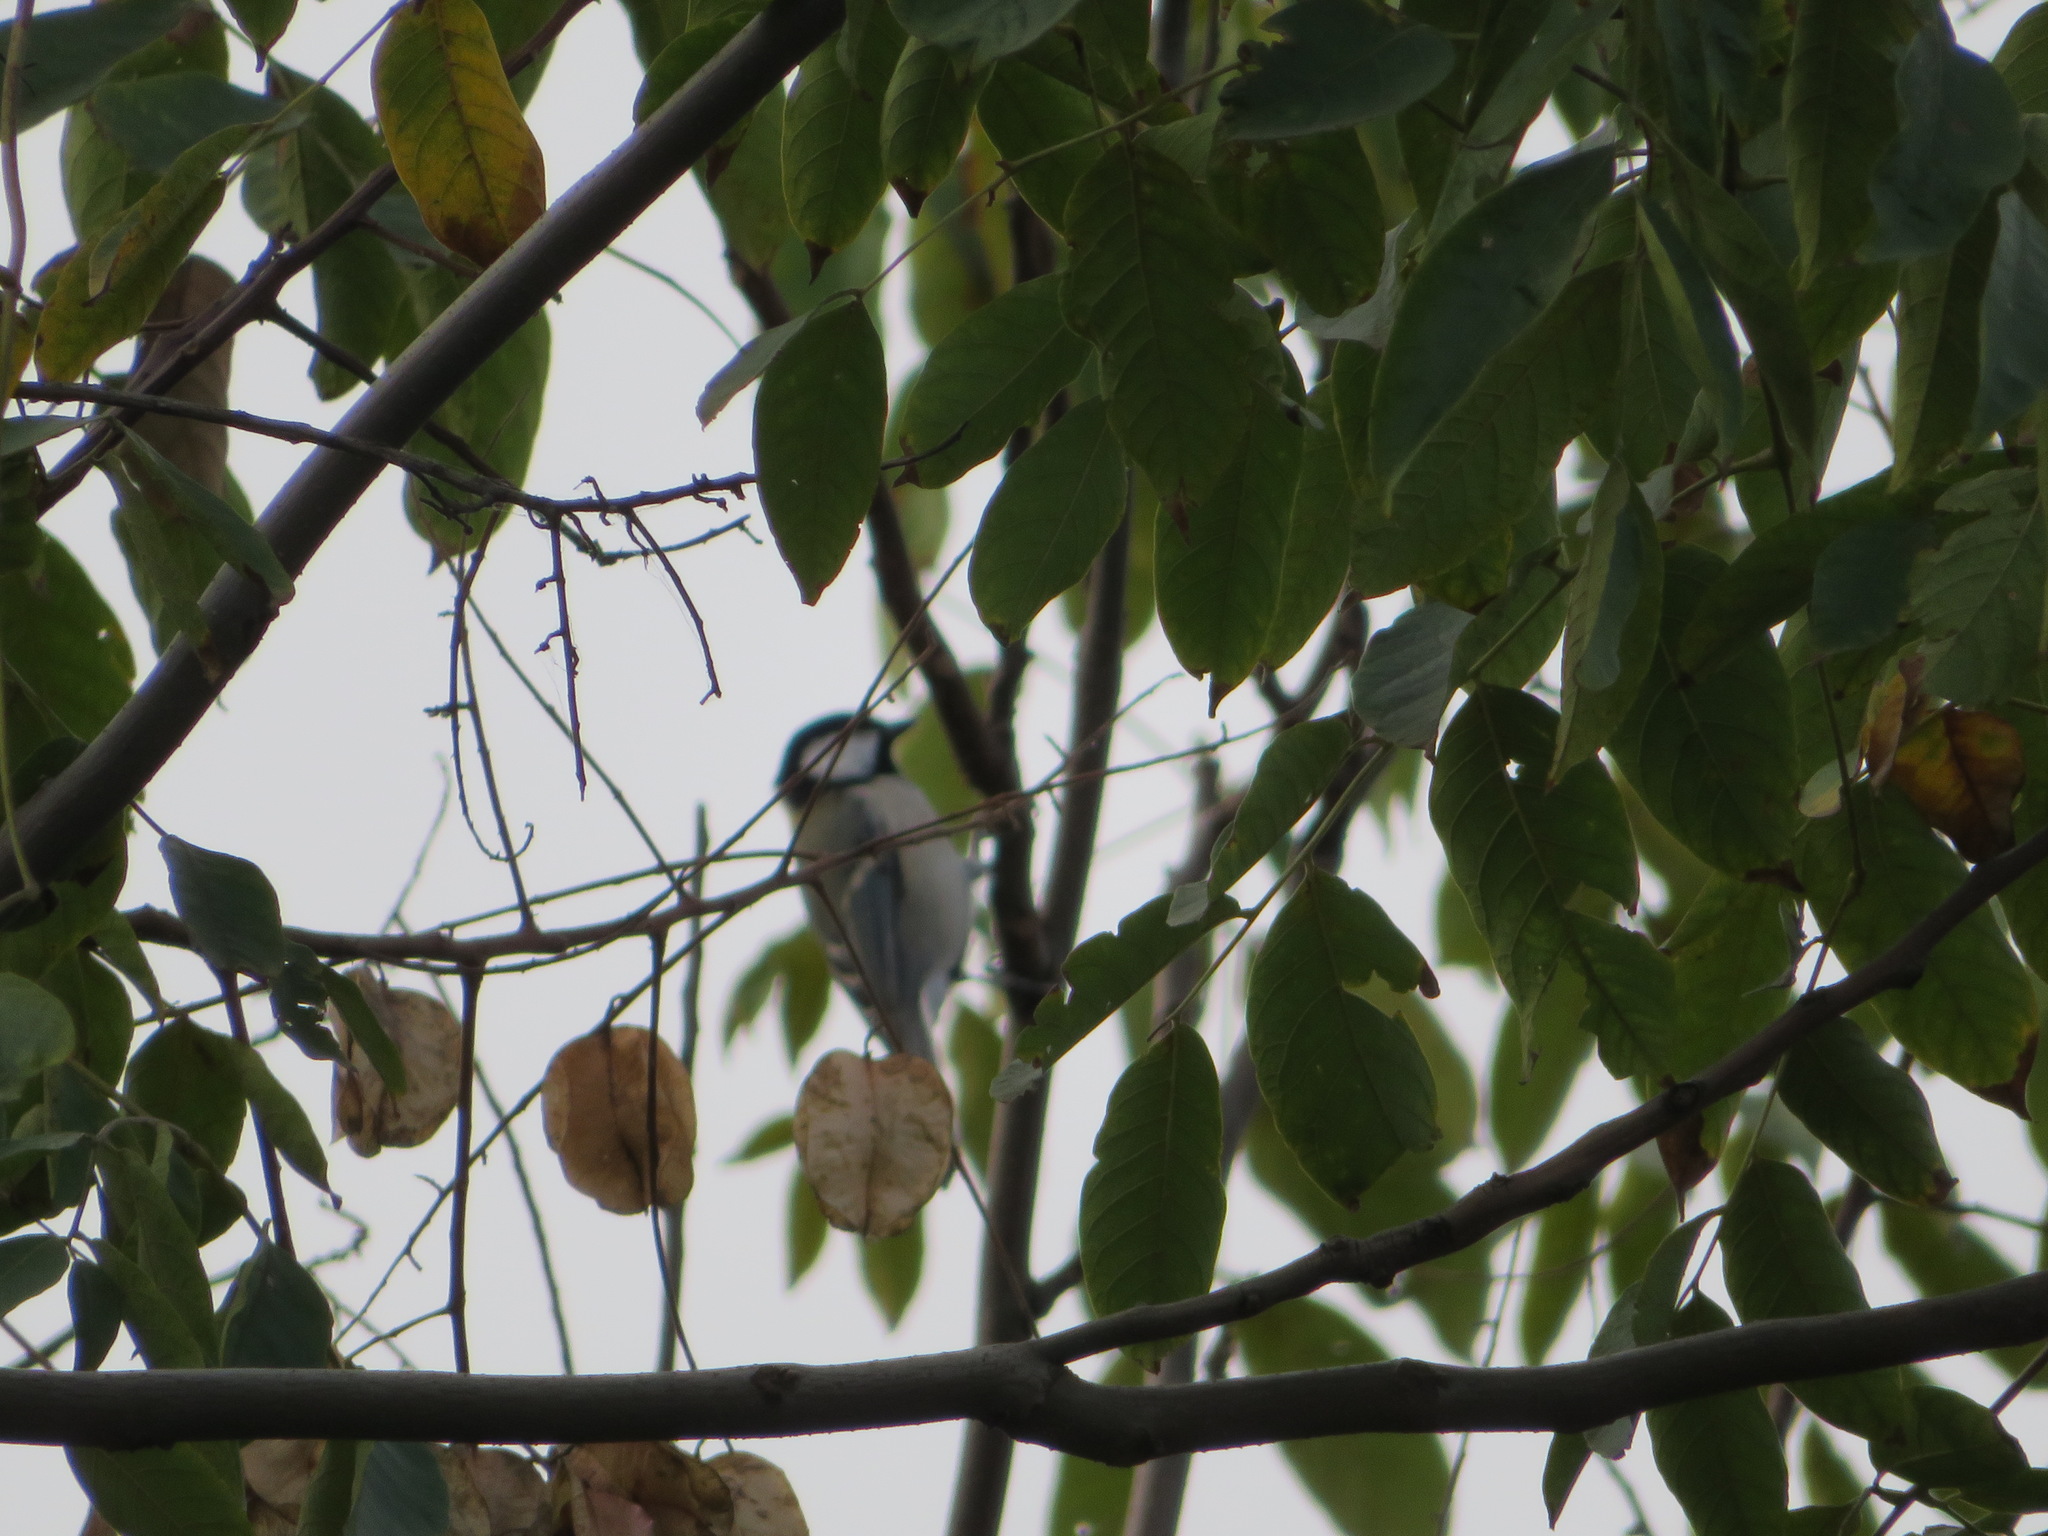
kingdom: Animalia
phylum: Chordata
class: Aves
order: Passeriformes
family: Paridae
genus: Parus
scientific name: Parus minor
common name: Japanese tit
